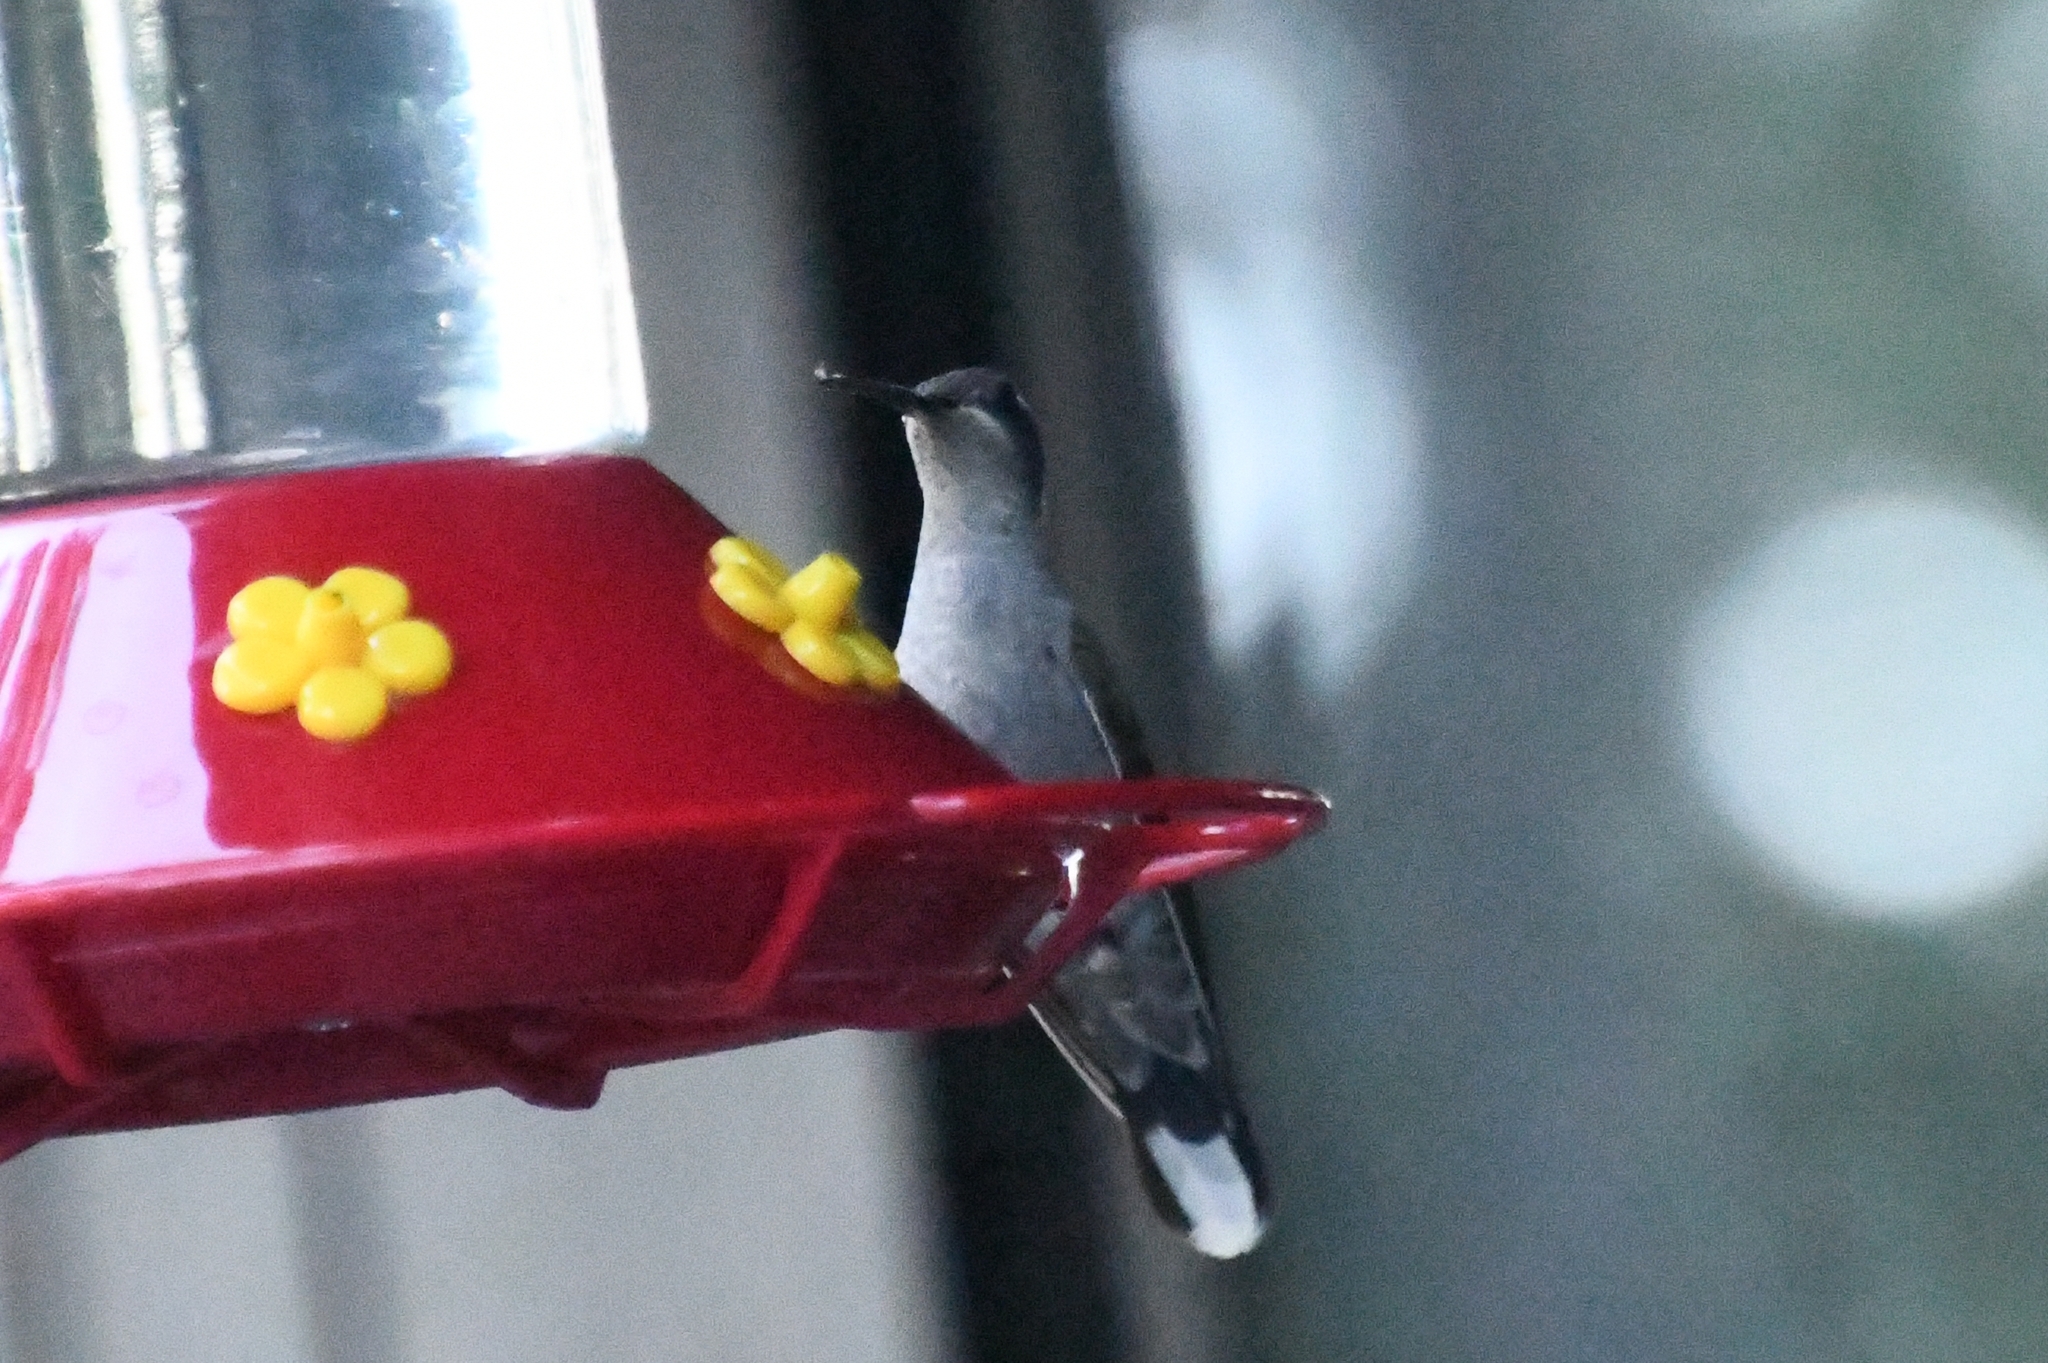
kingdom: Animalia
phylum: Chordata
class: Aves
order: Apodiformes
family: Trochilidae
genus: Lampornis
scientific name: Lampornis clemenciae
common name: Blue-throated mountaingem
